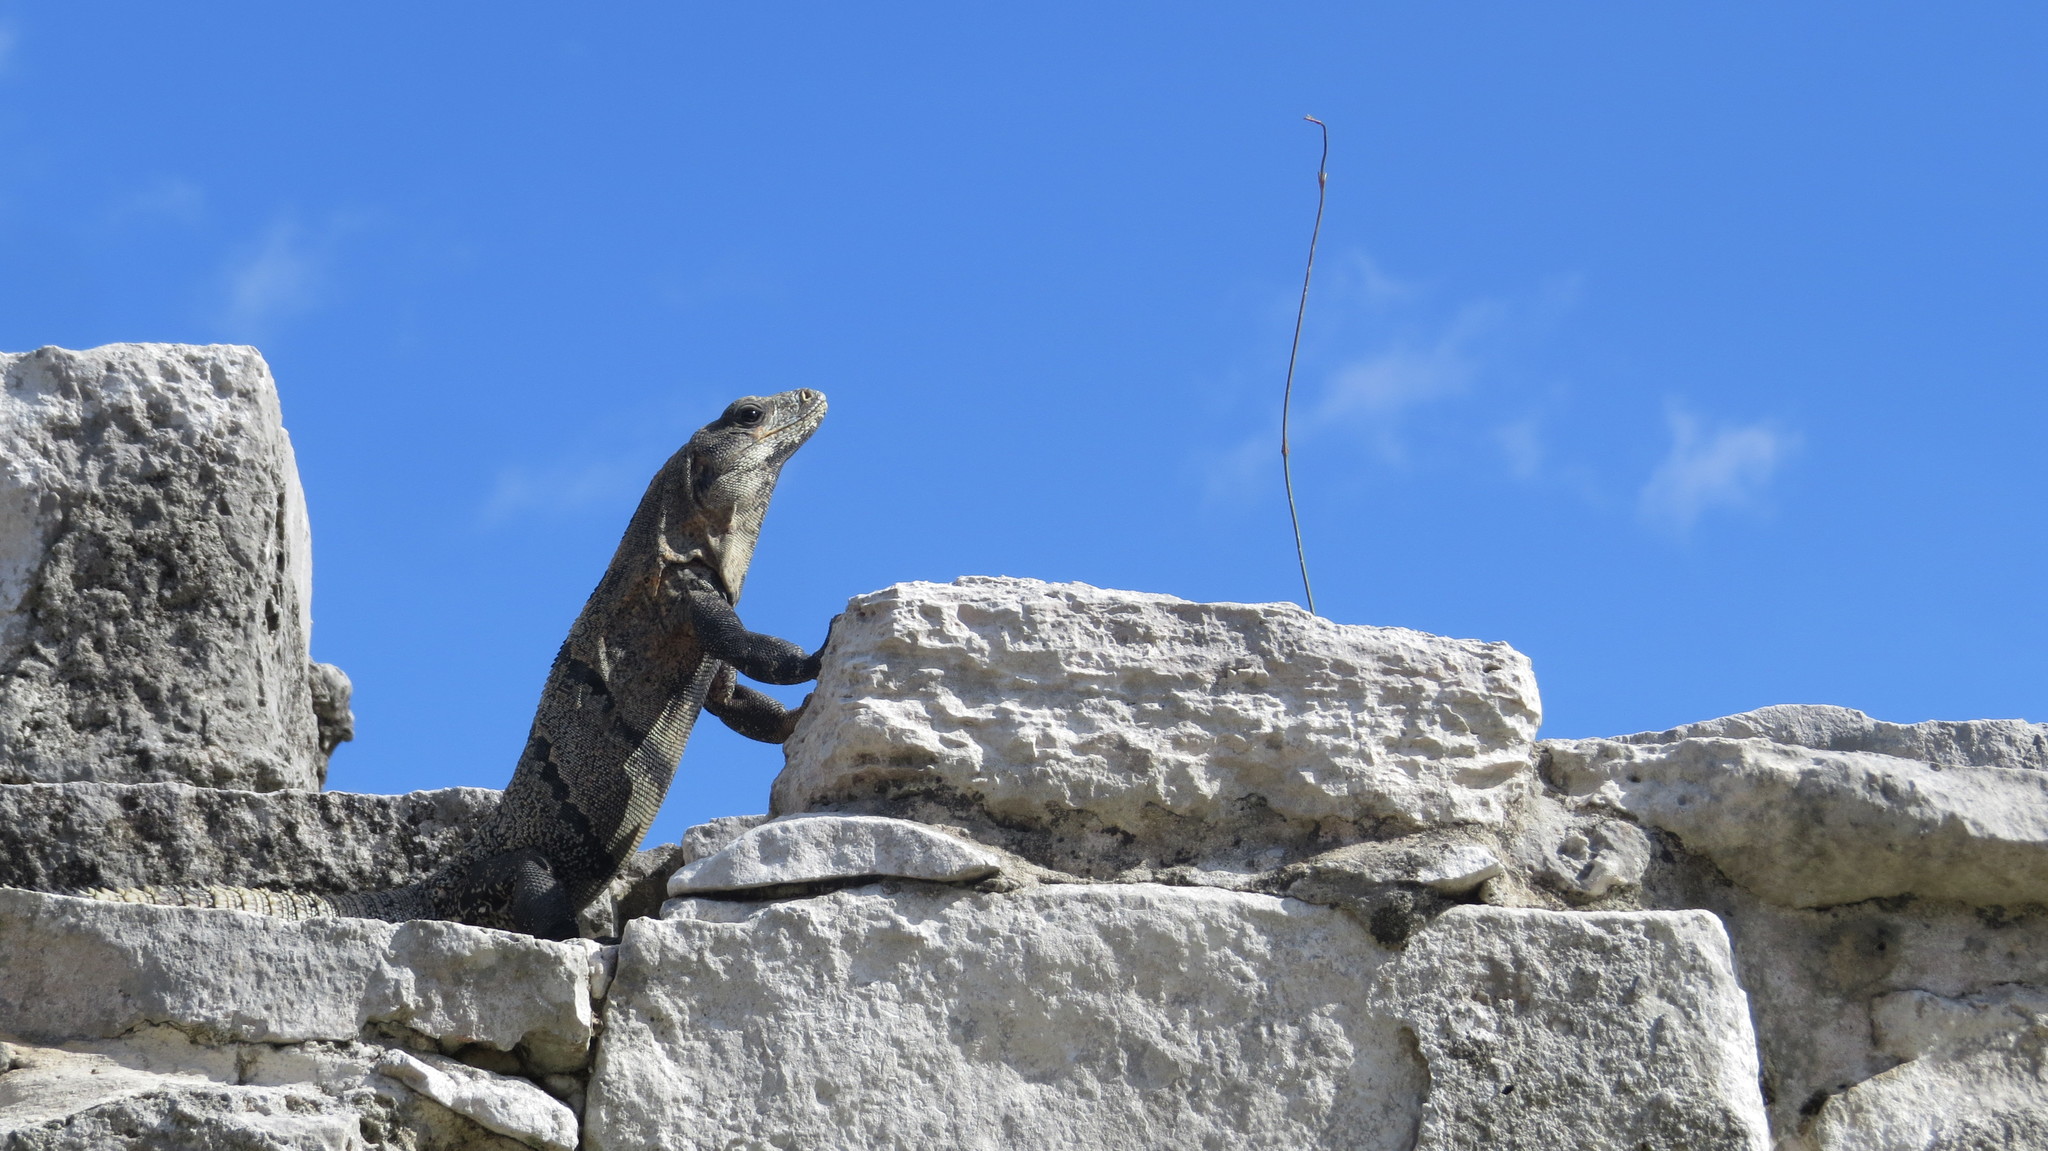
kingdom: Animalia
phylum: Chordata
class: Squamata
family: Iguanidae
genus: Ctenosaura
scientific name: Ctenosaura similis
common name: Black spiny-tailed iguana
